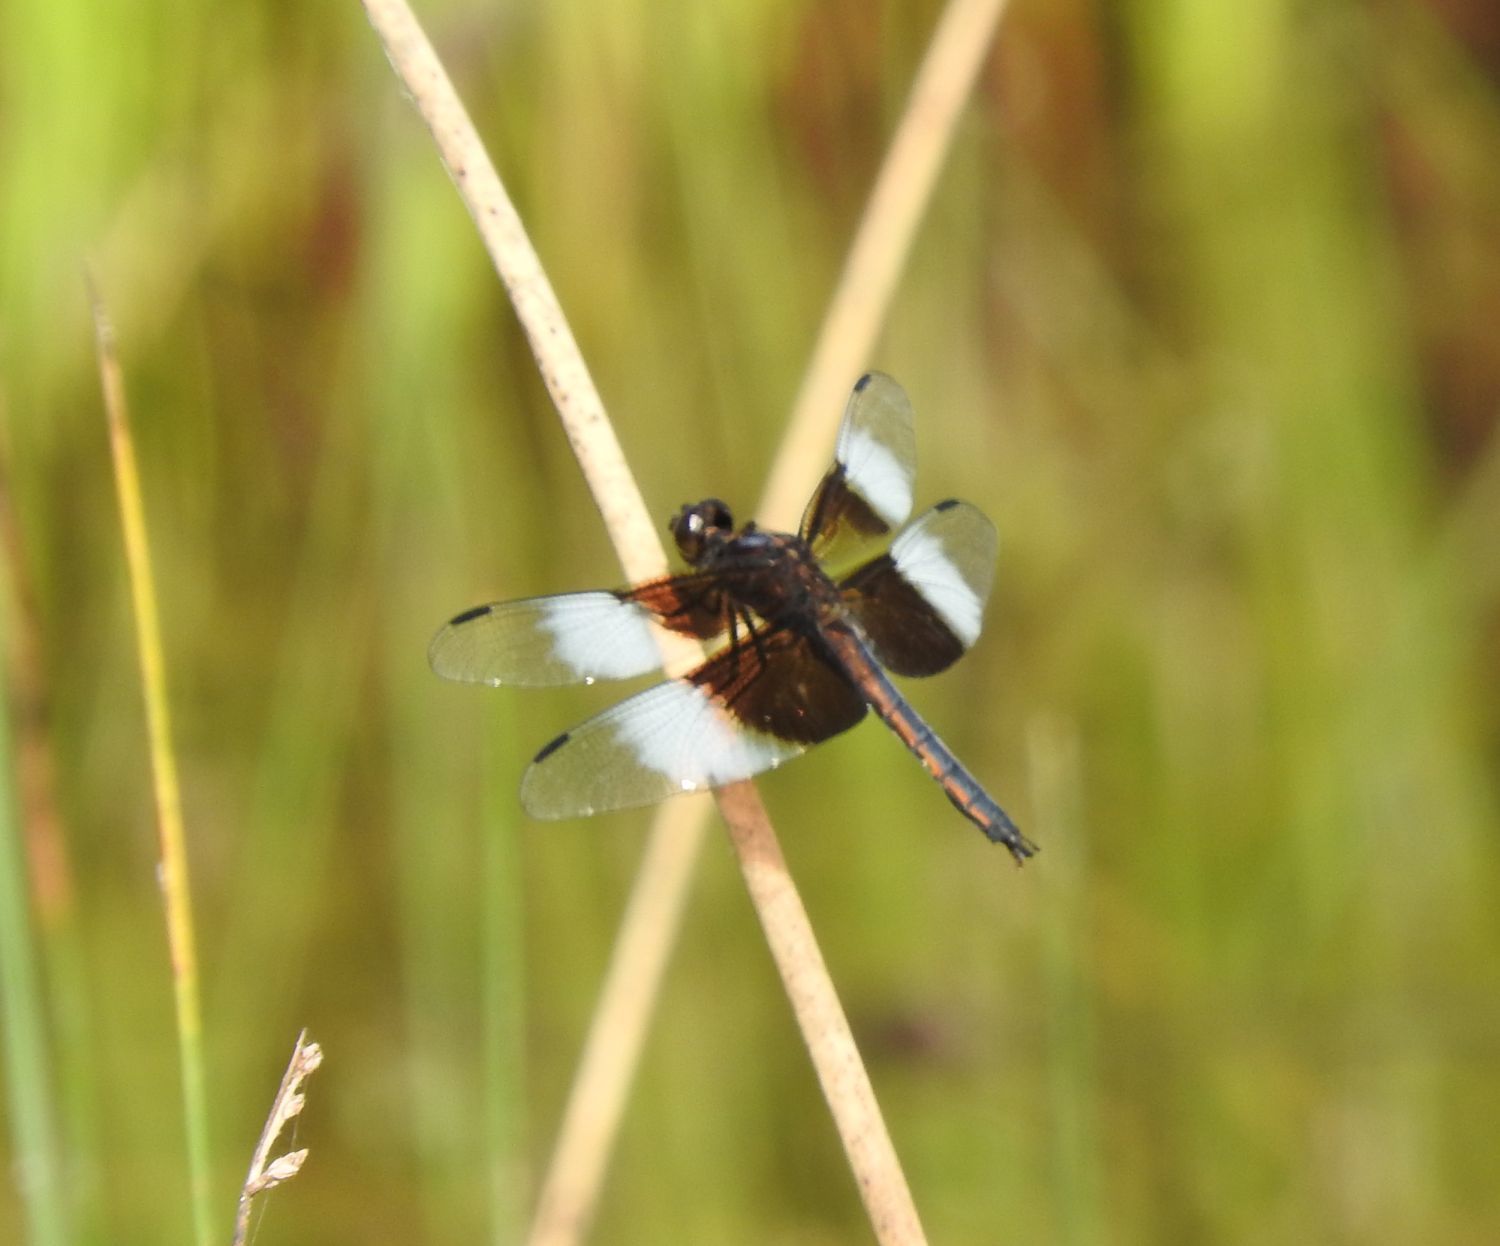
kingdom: Animalia
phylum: Arthropoda
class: Insecta
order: Odonata
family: Libellulidae
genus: Libellula
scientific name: Libellula luctuosa
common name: Widow skimmer
